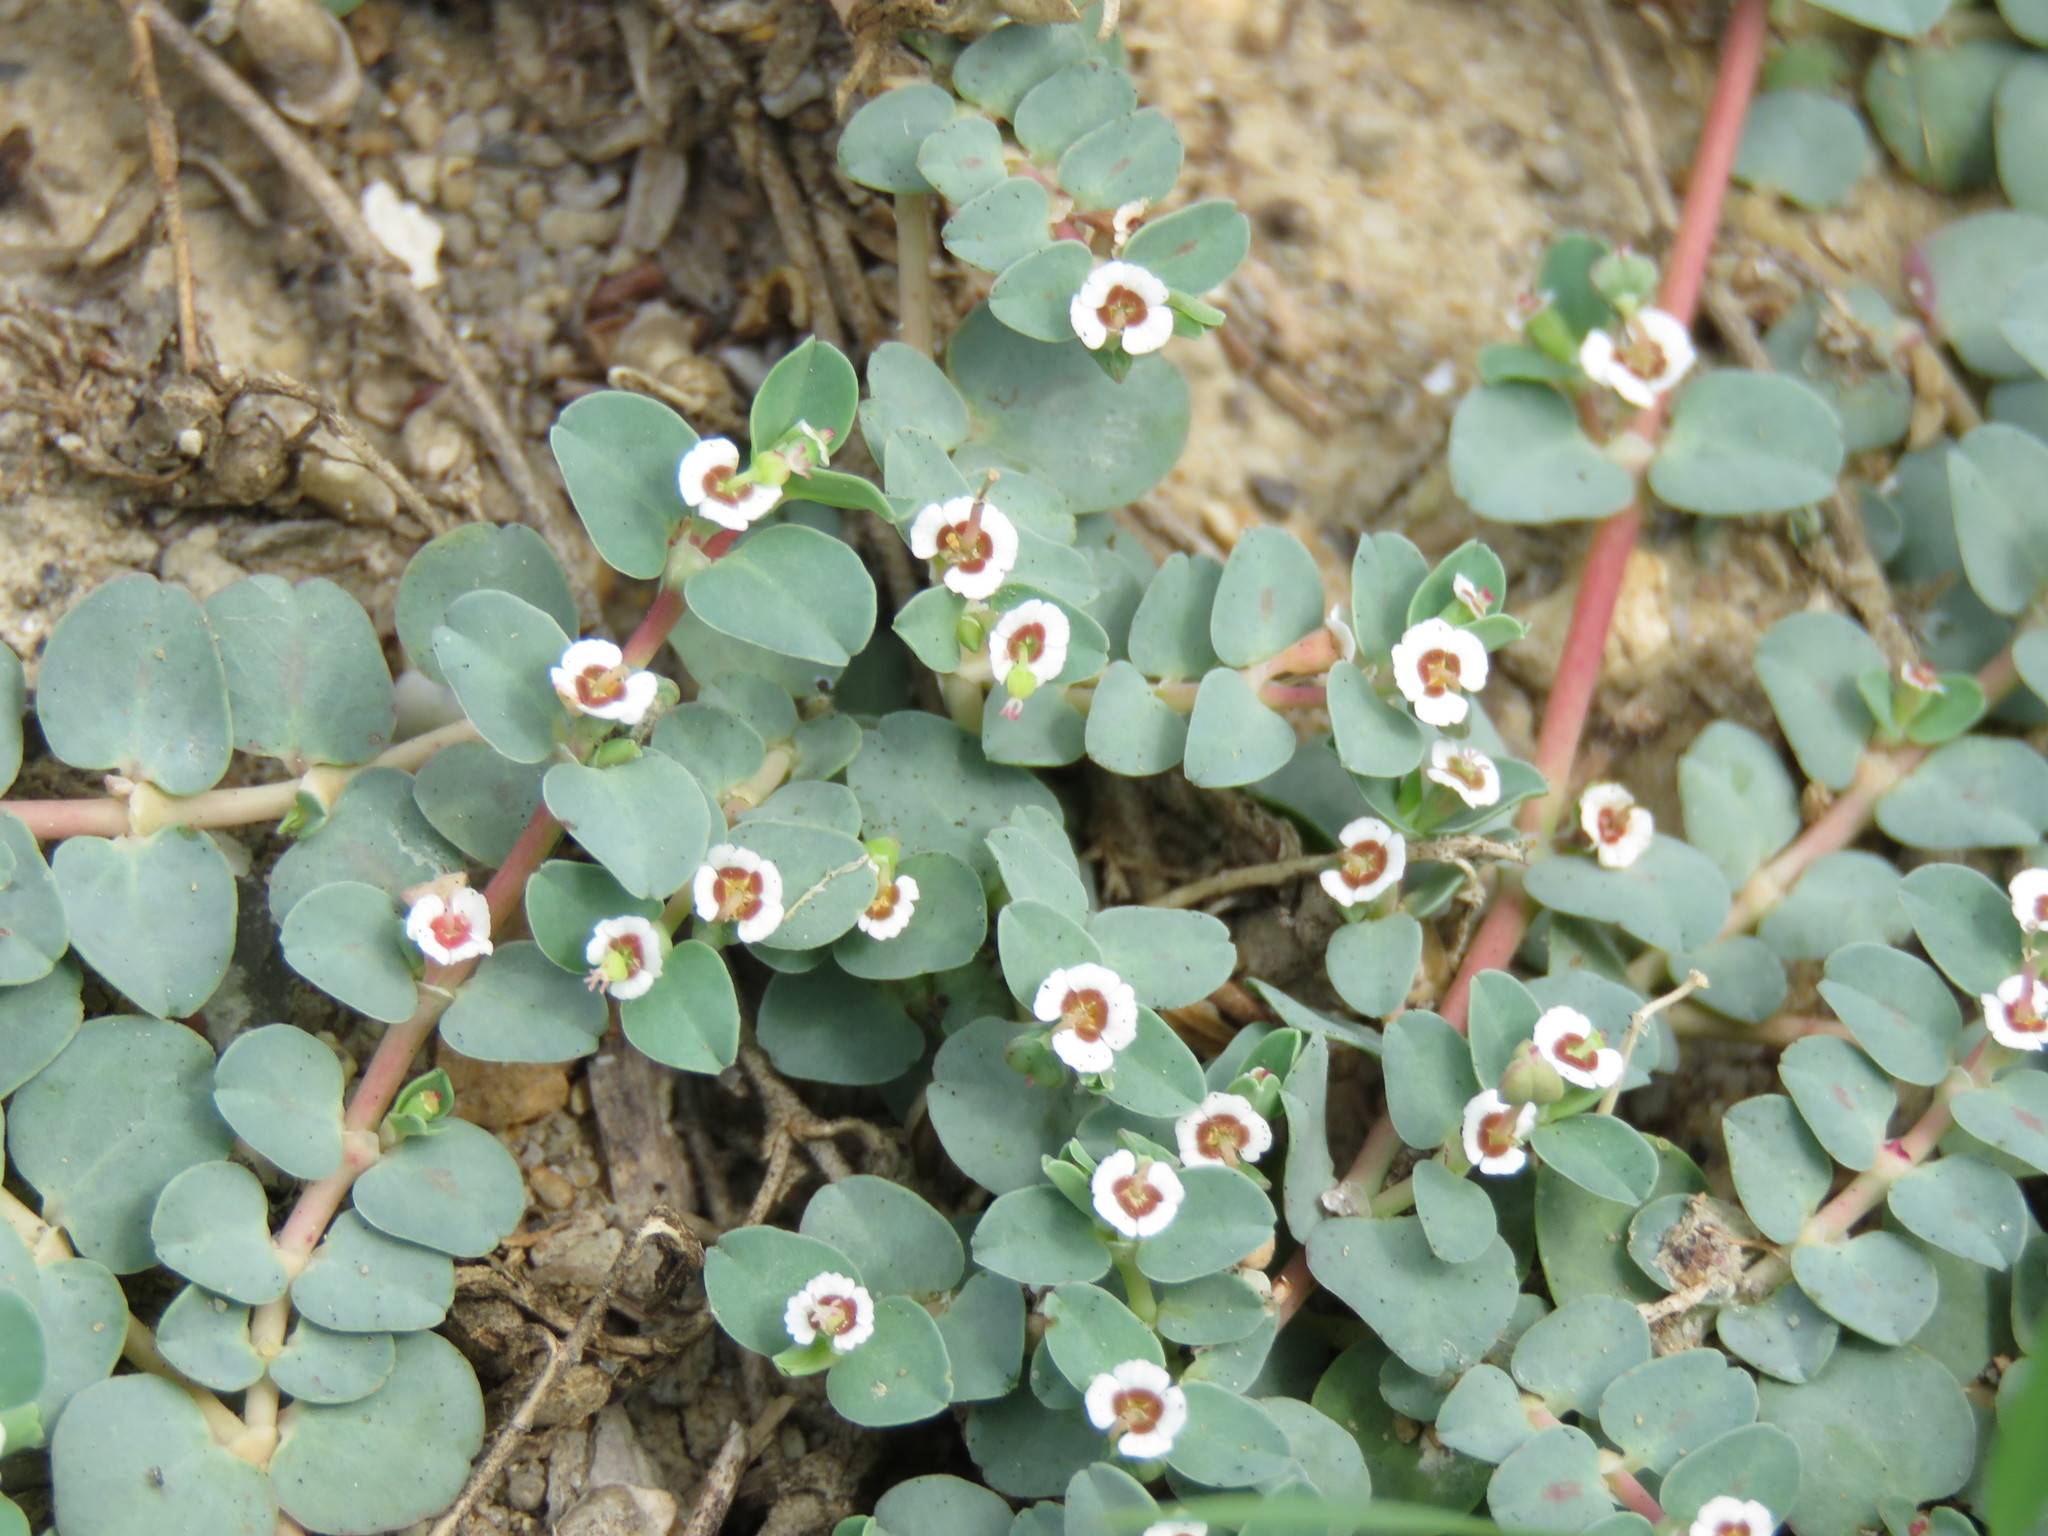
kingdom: Plantae
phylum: Tracheophyta
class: Magnoliopsida
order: Malpighiales
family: Euphorbiaceae
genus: Euphorbia
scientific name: Euphorbia albomarginata
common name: Whitemargin sandmat
